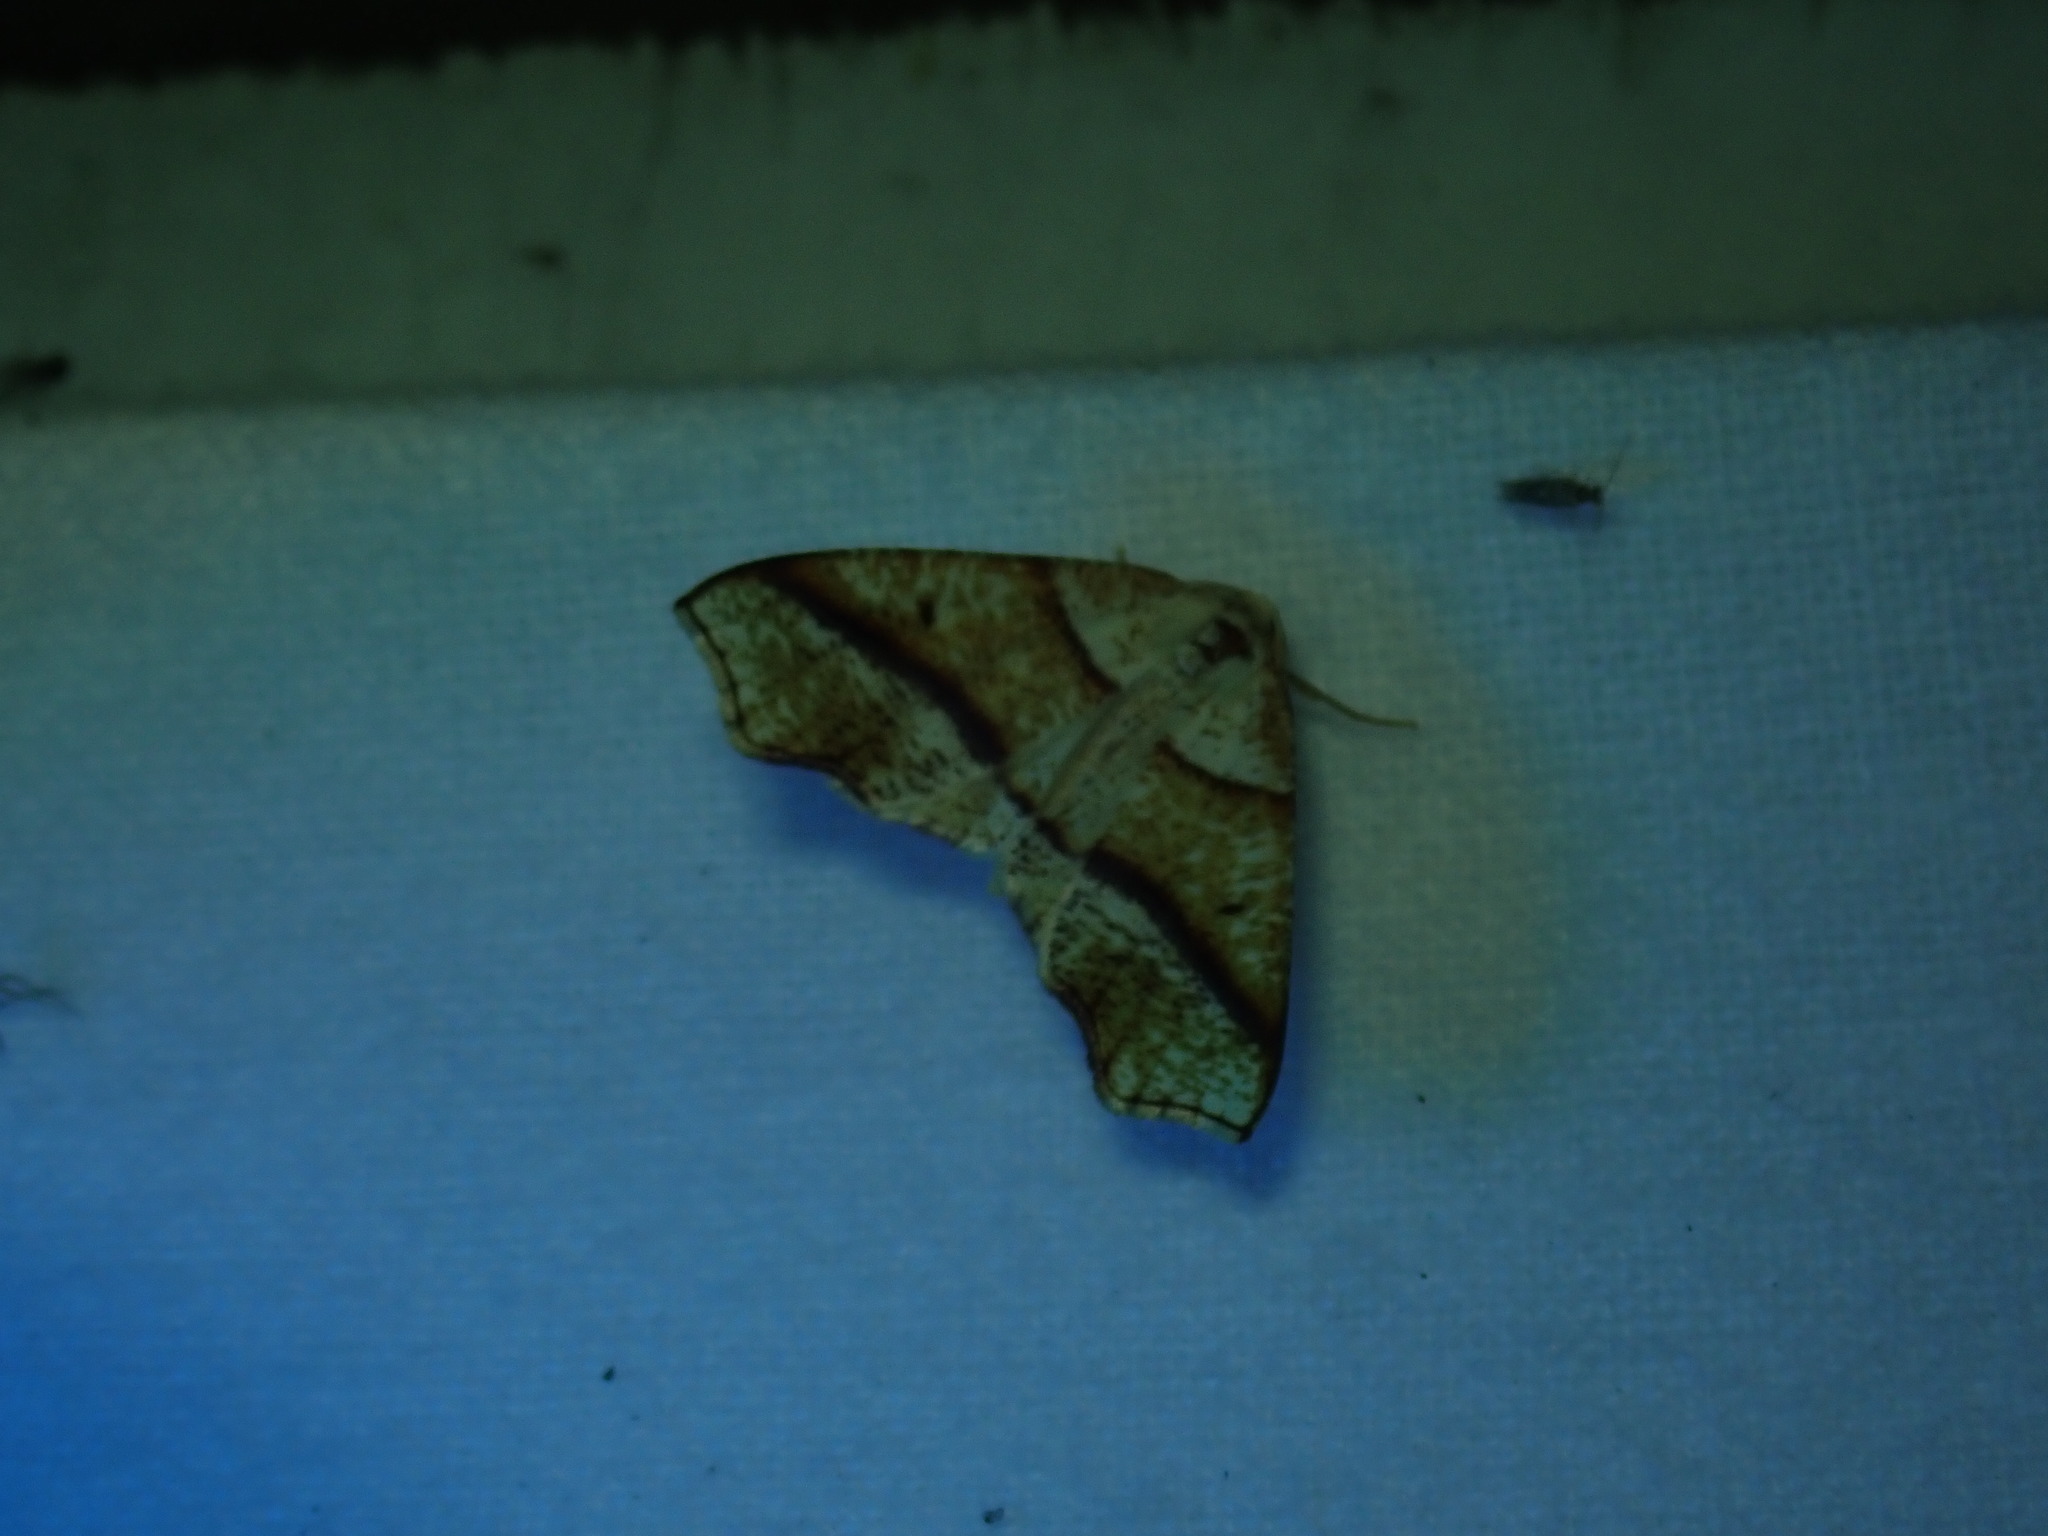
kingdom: Animalia
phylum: Arthropoda
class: Insecta
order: Lepidoptera
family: Geometridae
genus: Plagodis
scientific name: Plagodis alcoolaria
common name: Hollow-spotted plagodis
